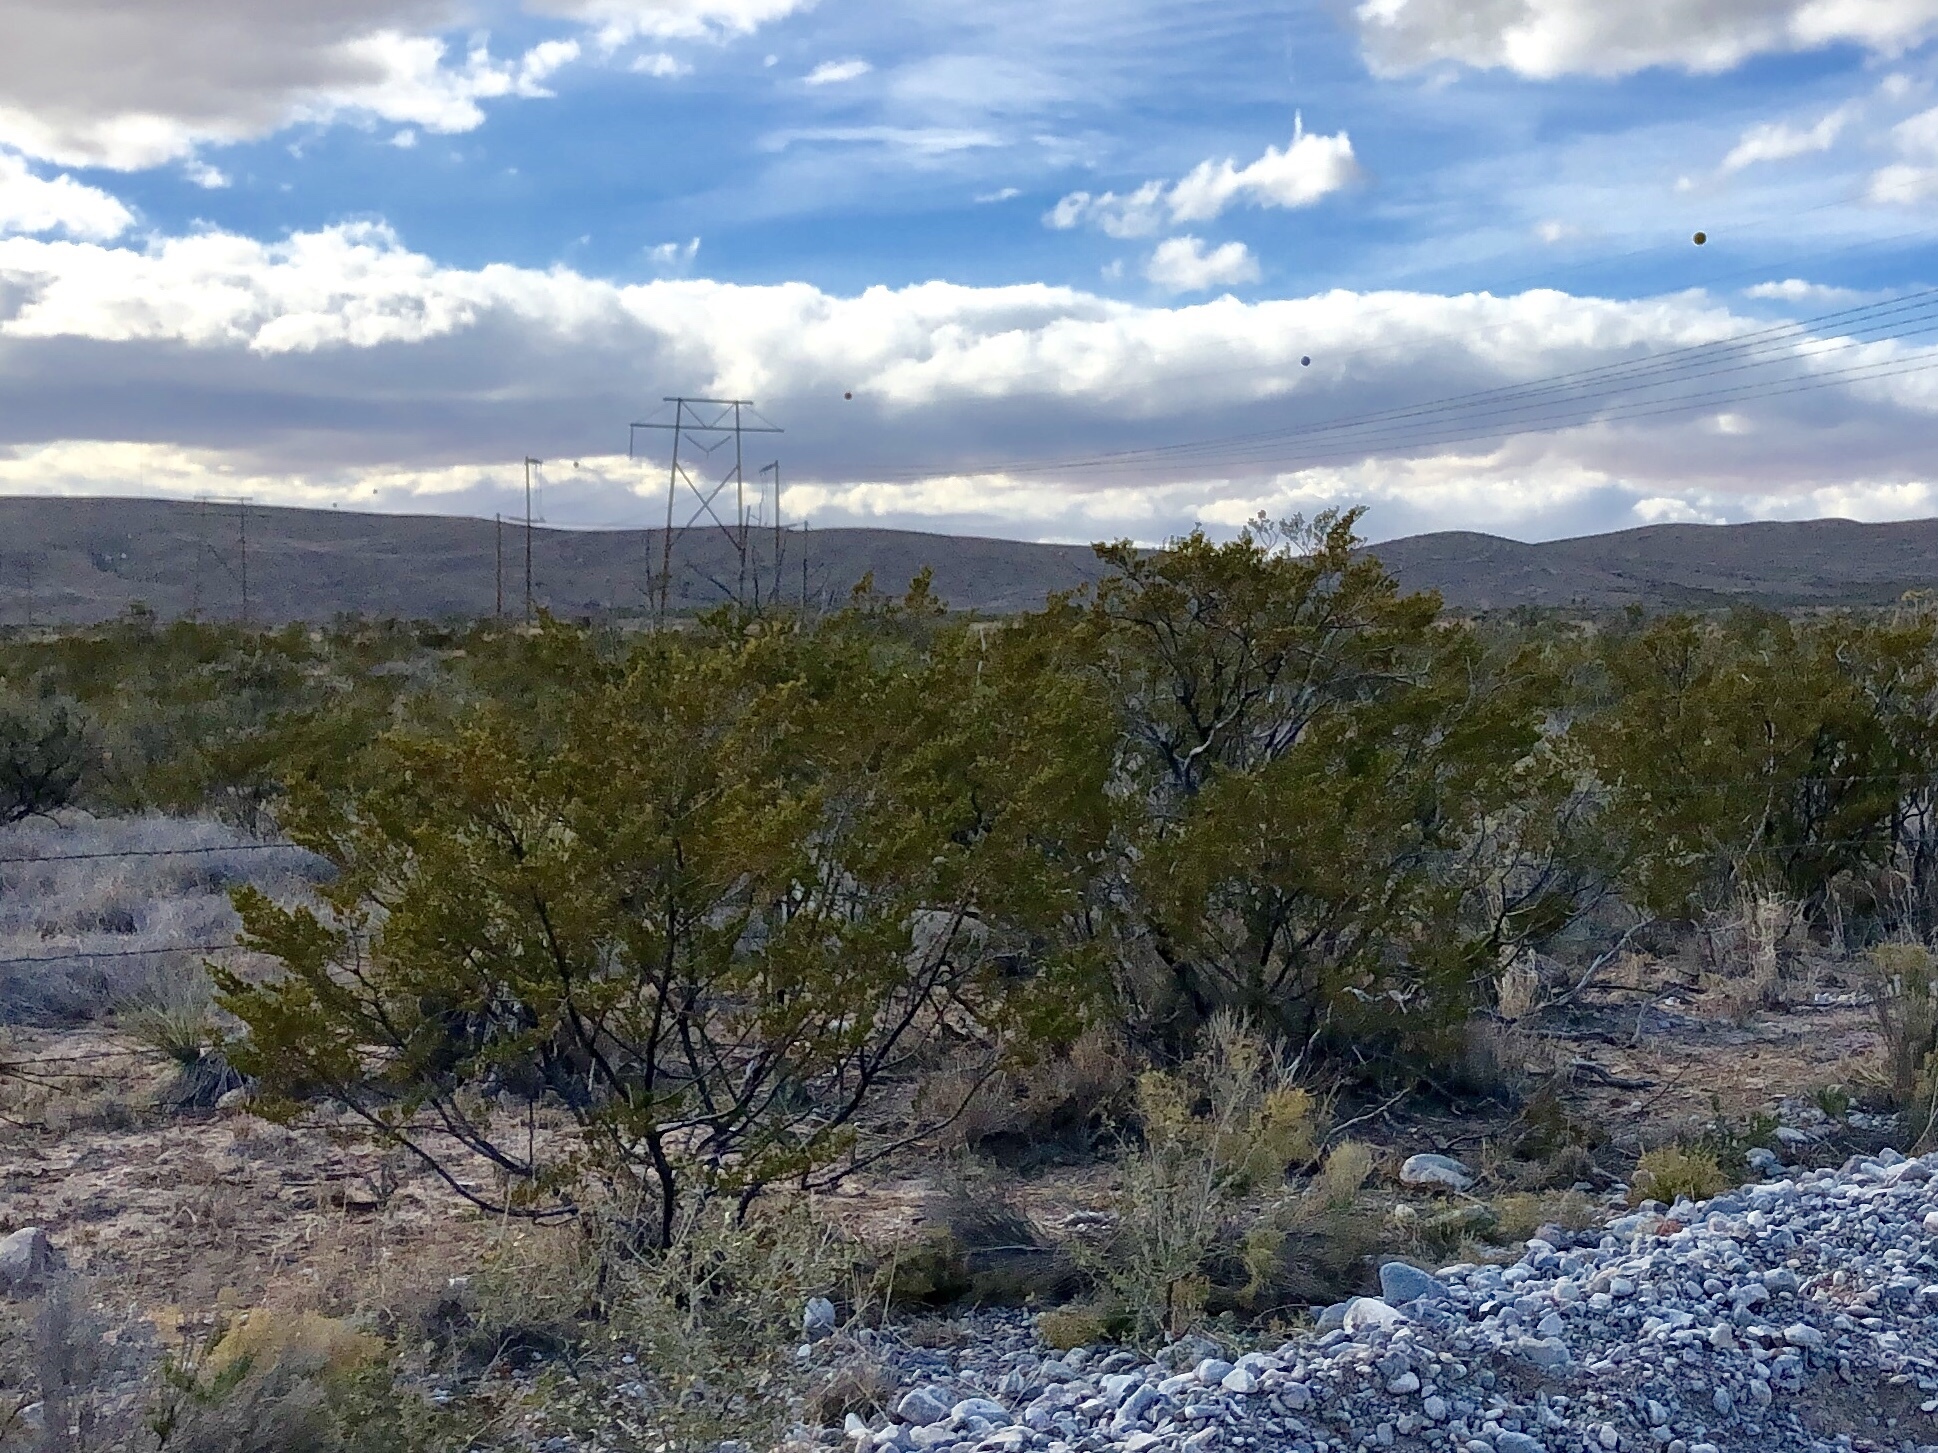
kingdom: Plantae
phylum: Tracheophyta
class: Magnoliopsida
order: Zygophyllales
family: Zygophyllaceae
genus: Larrea
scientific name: Larrea tridentata
